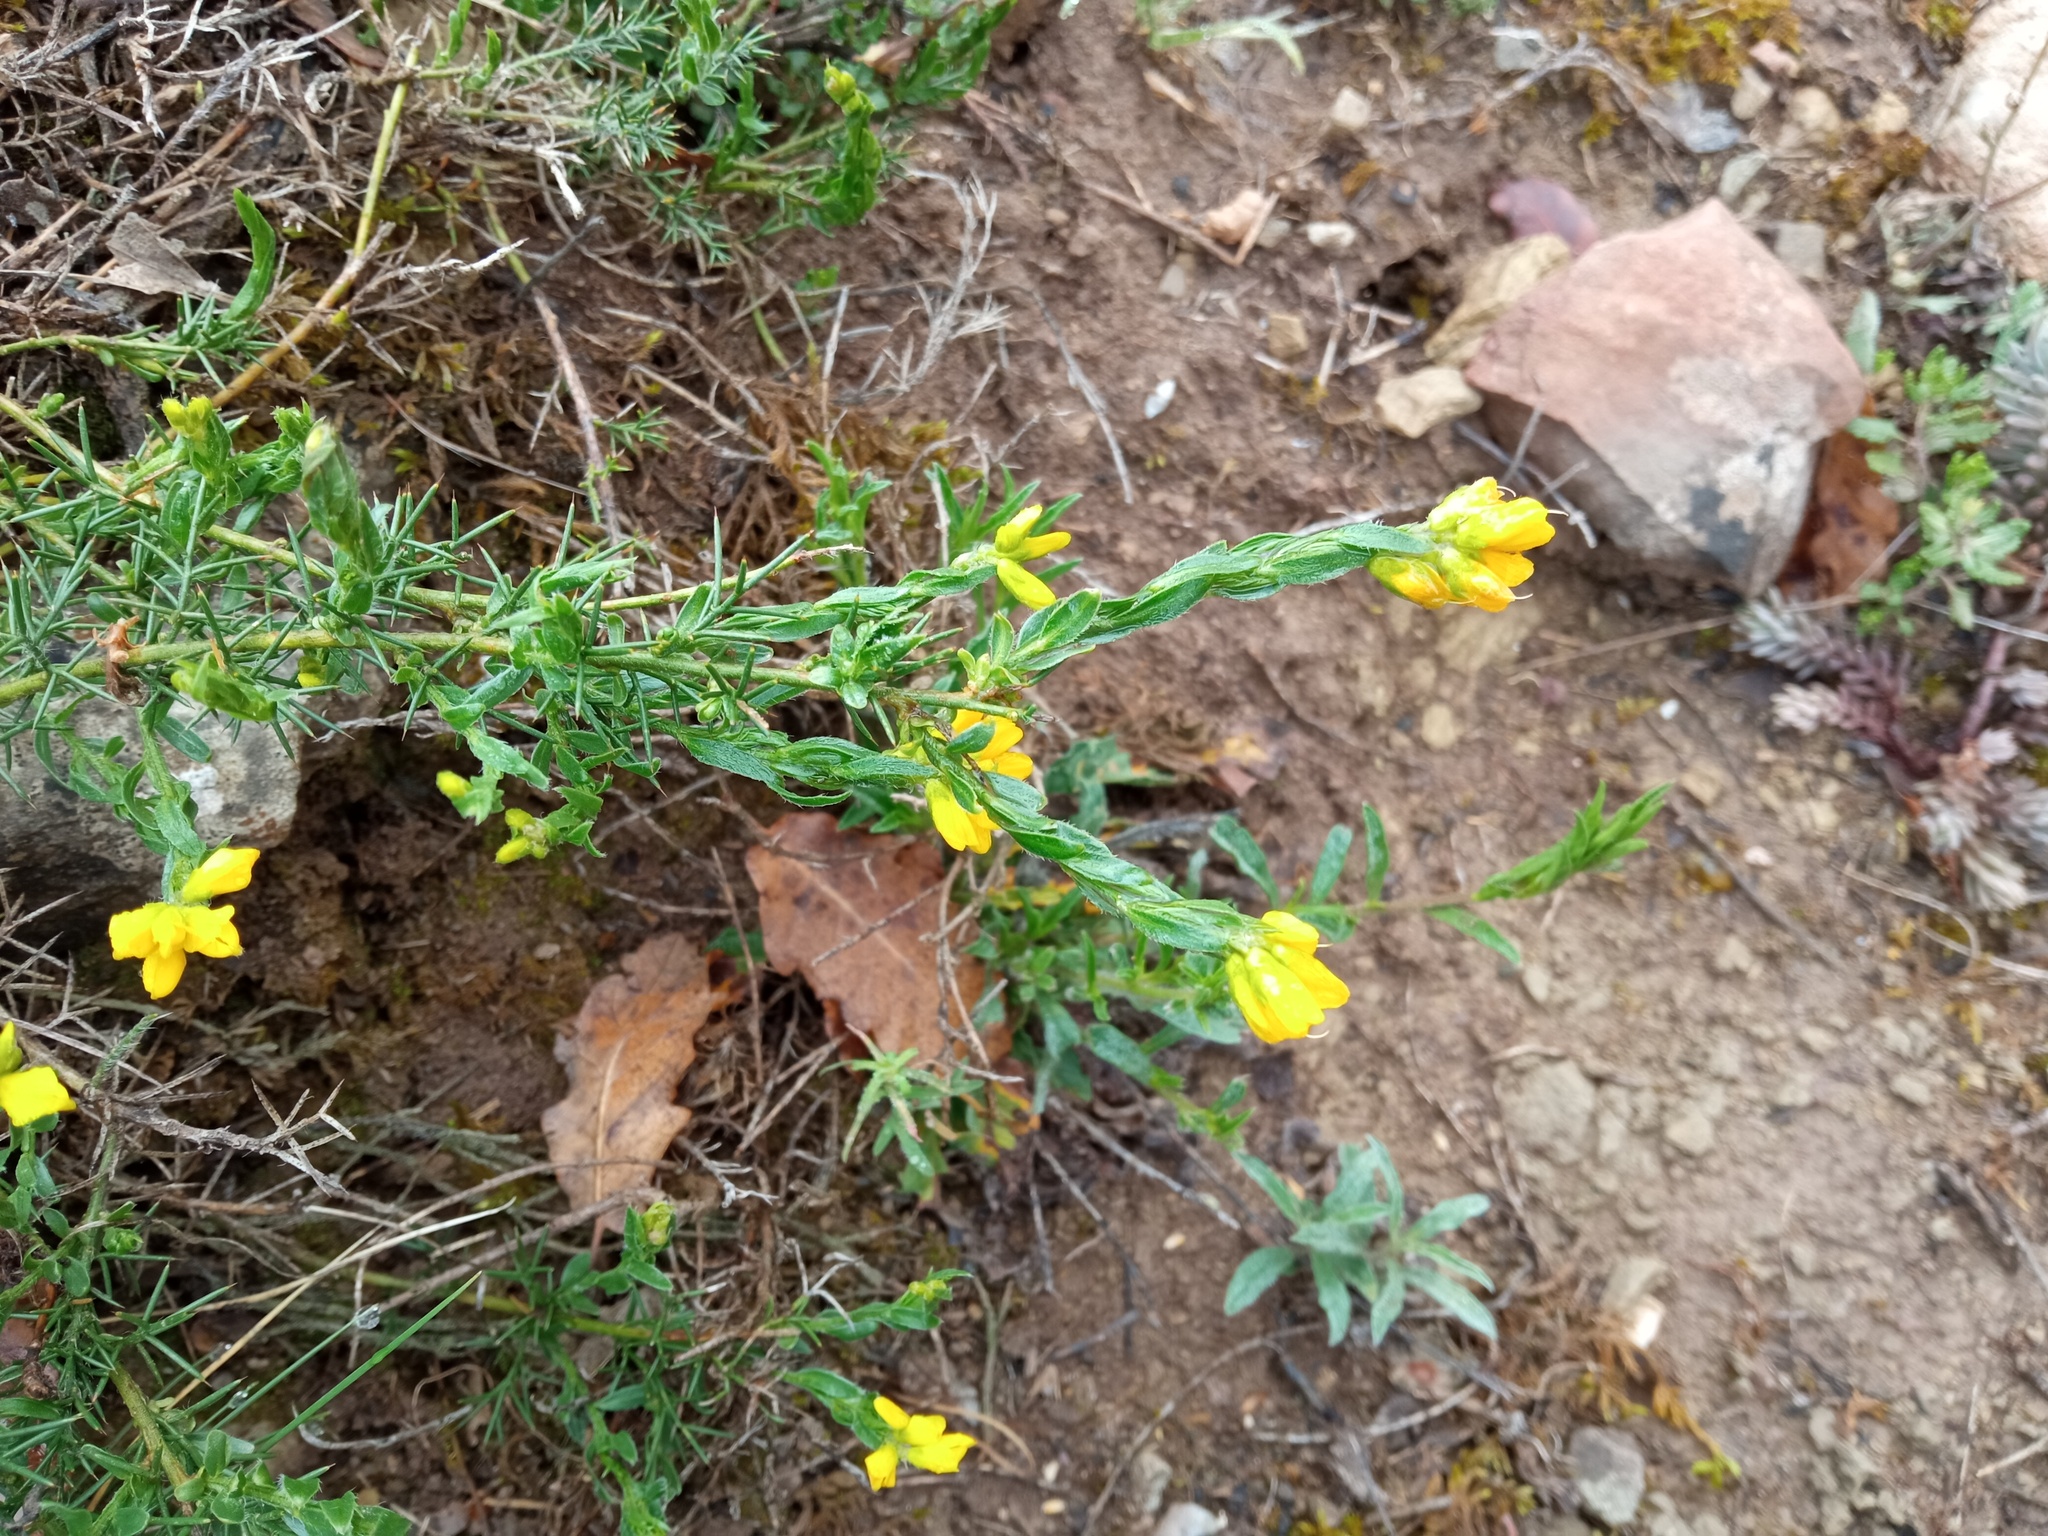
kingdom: Plantae
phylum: Tracheophyta
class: Magnoliopsida
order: Fabales
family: Fabaceae
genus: Genista
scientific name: Genista hispanica
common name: Spanish gorse
